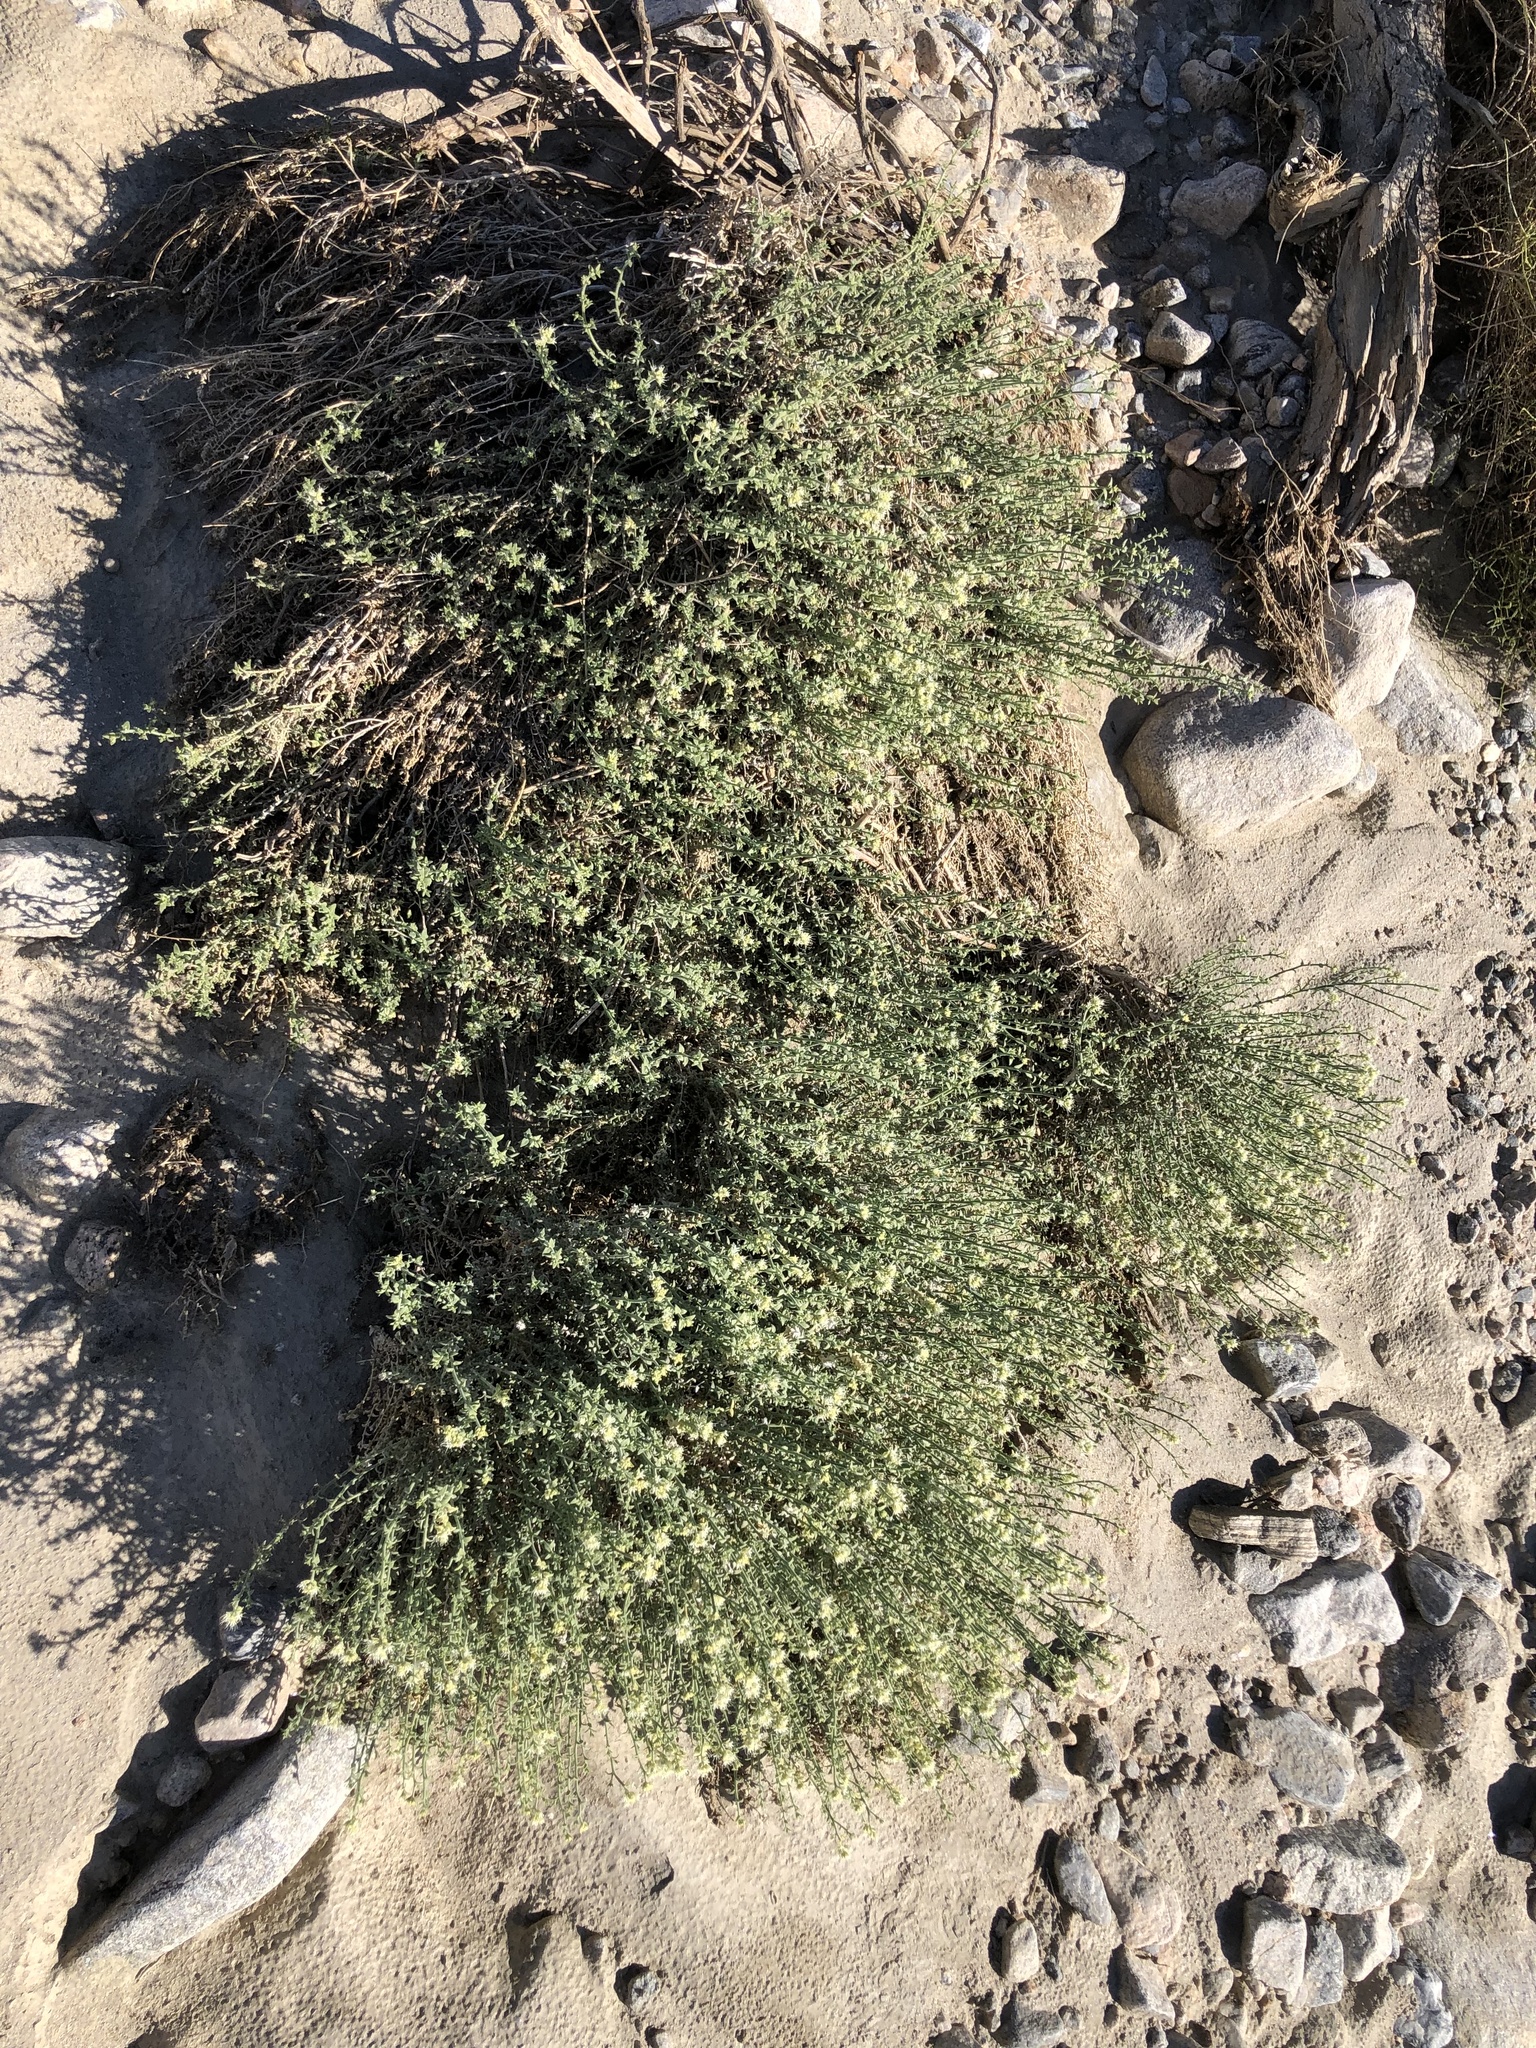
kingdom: Plantae
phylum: Tracheophyta
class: Magnoliopsida
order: Cornales
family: Loasaceae
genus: Petalonyx
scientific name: Petalonyx thurberi
